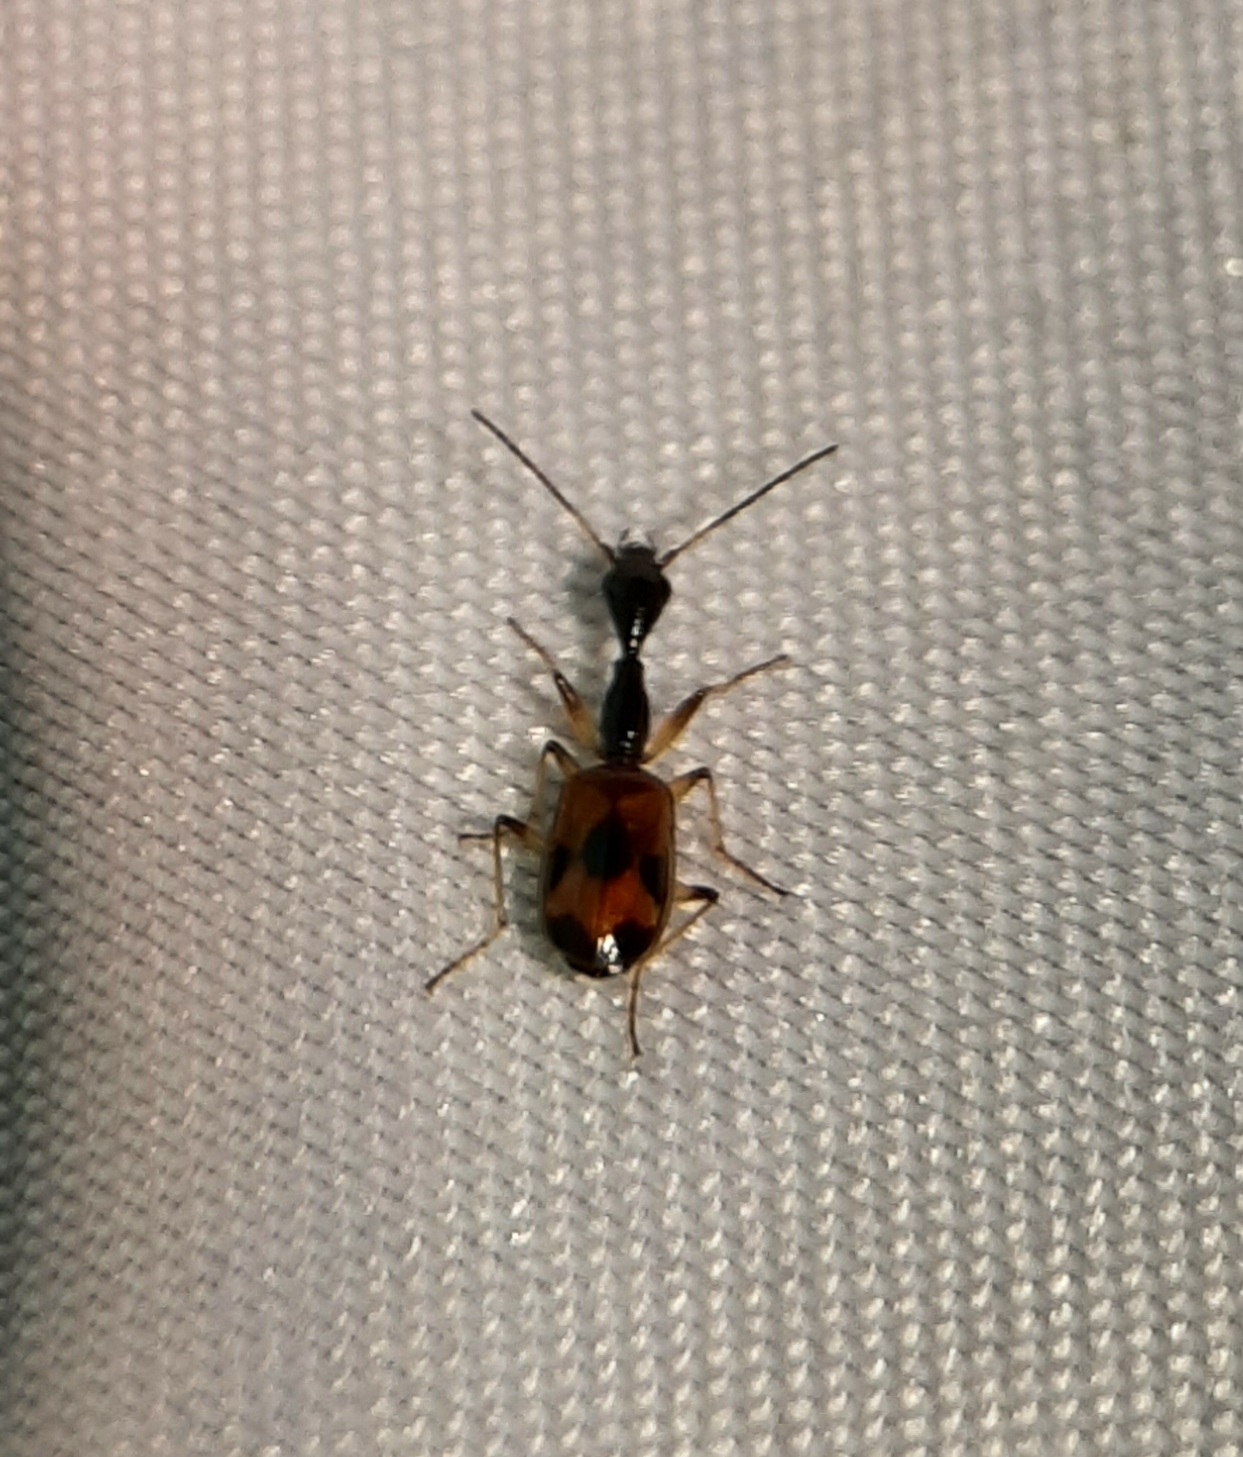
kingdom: Animalia
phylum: Arthropoda
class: Insecta
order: Coleoptera
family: Carabidae
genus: Colliuris
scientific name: Colliuris pensylvanica
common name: Long-necked ground beetle
